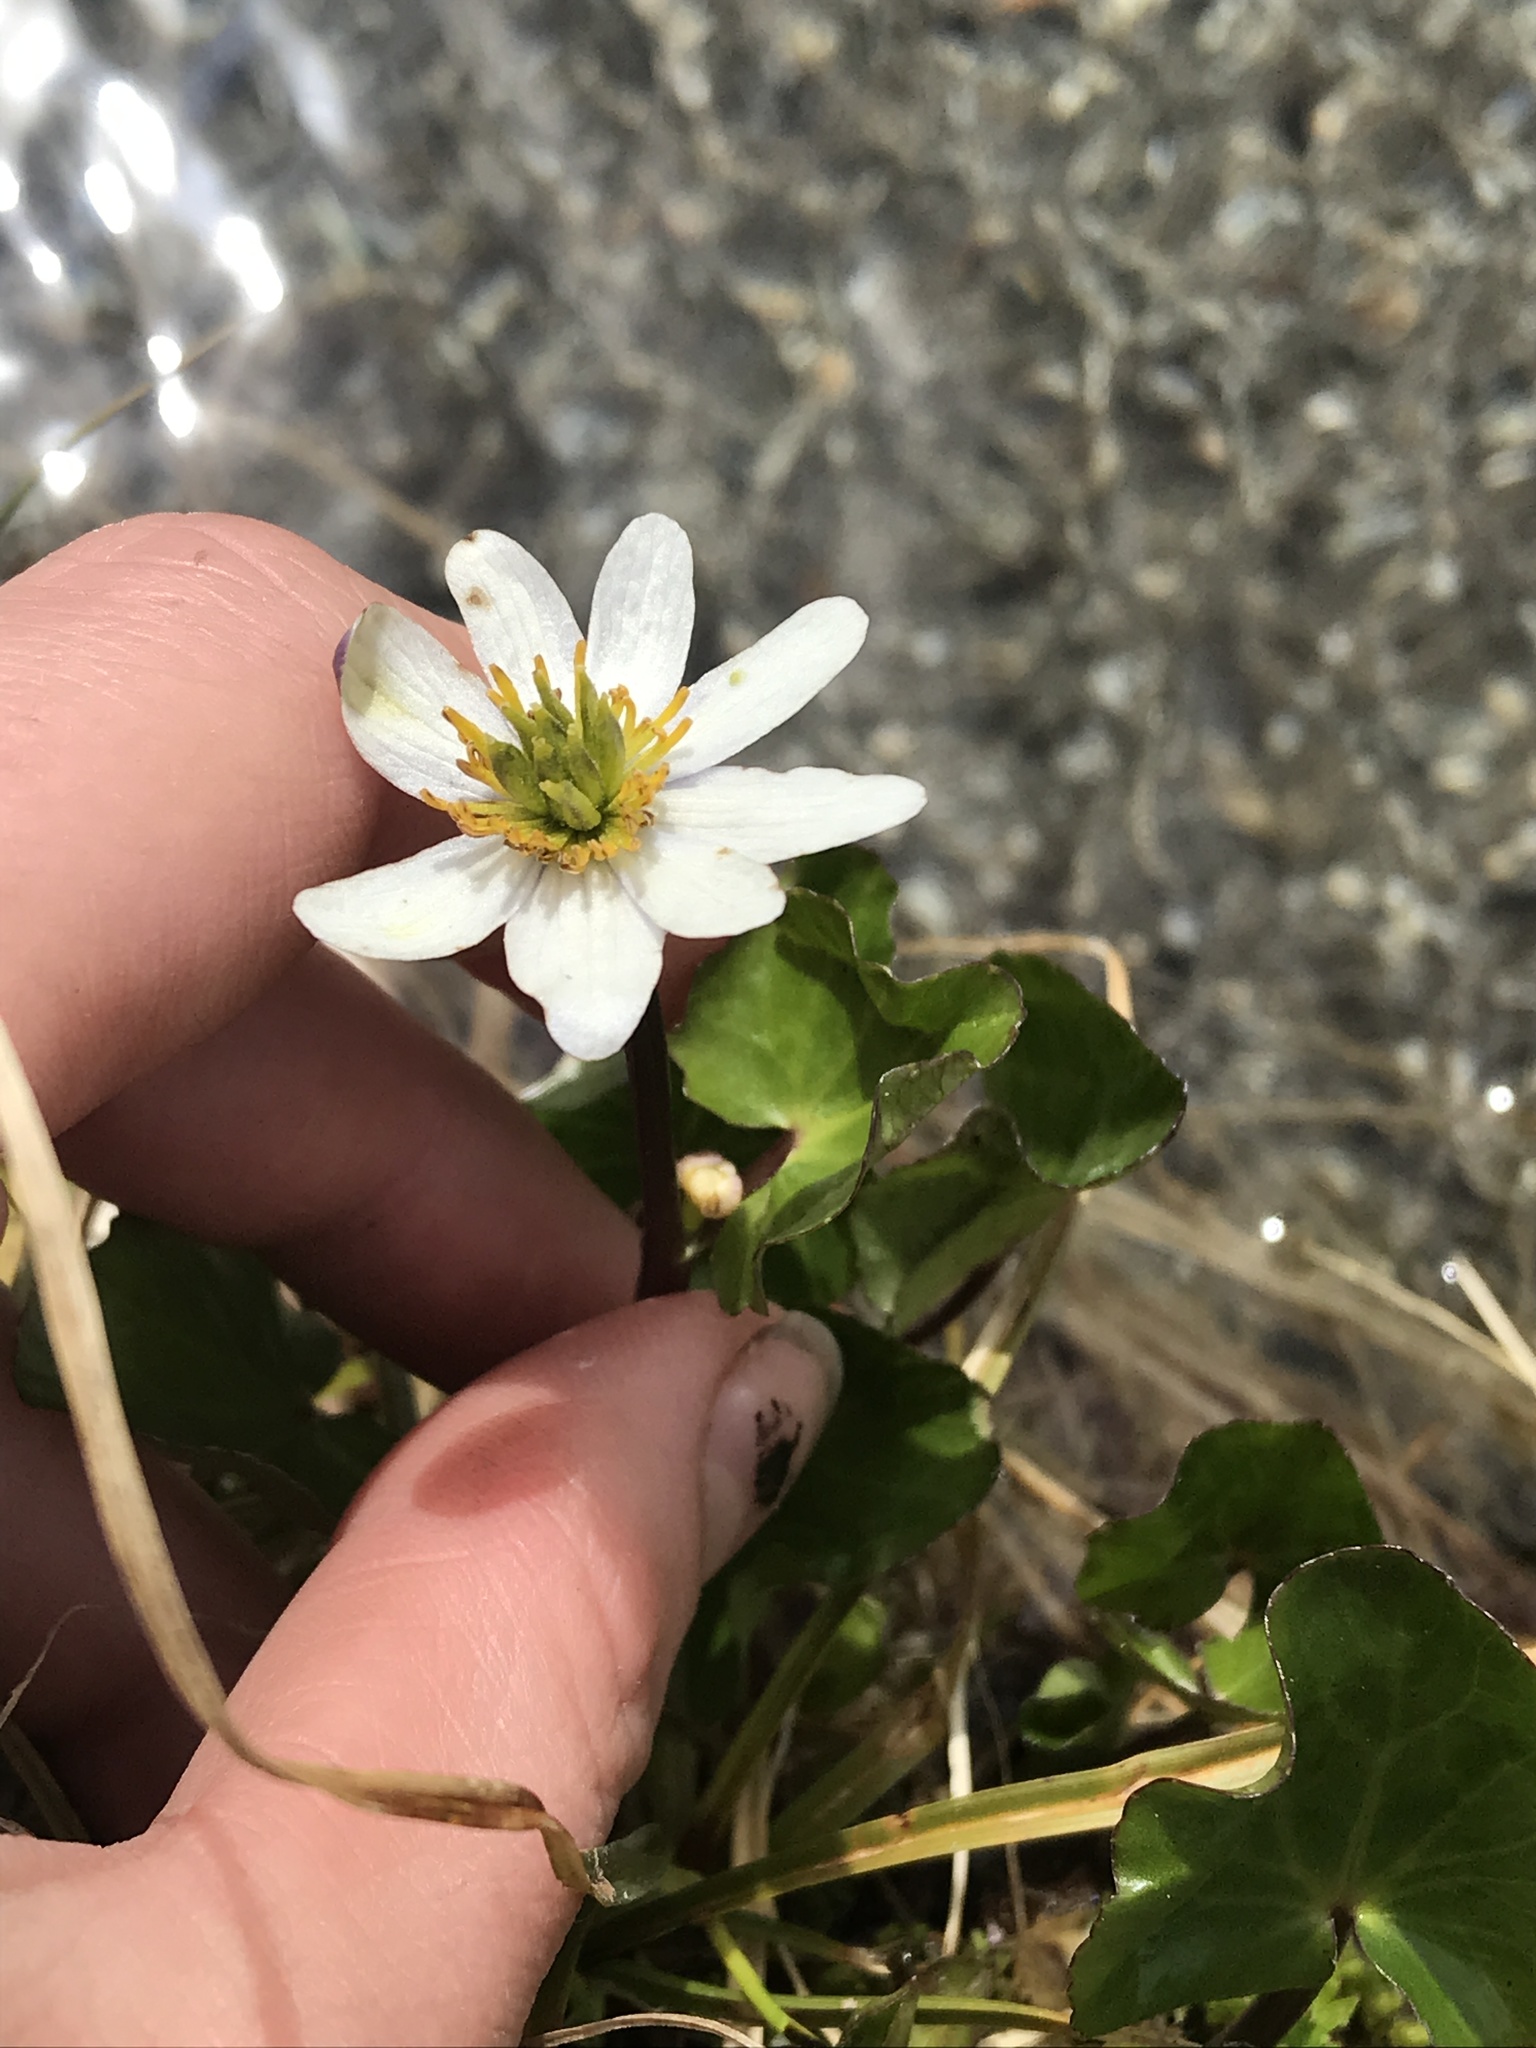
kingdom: Plantae
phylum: Tracheophyta
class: Magnoliopsida
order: Ranunculales
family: Ranunculaceae
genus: Caltha
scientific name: Caltha leptosepala
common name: Elkslip
